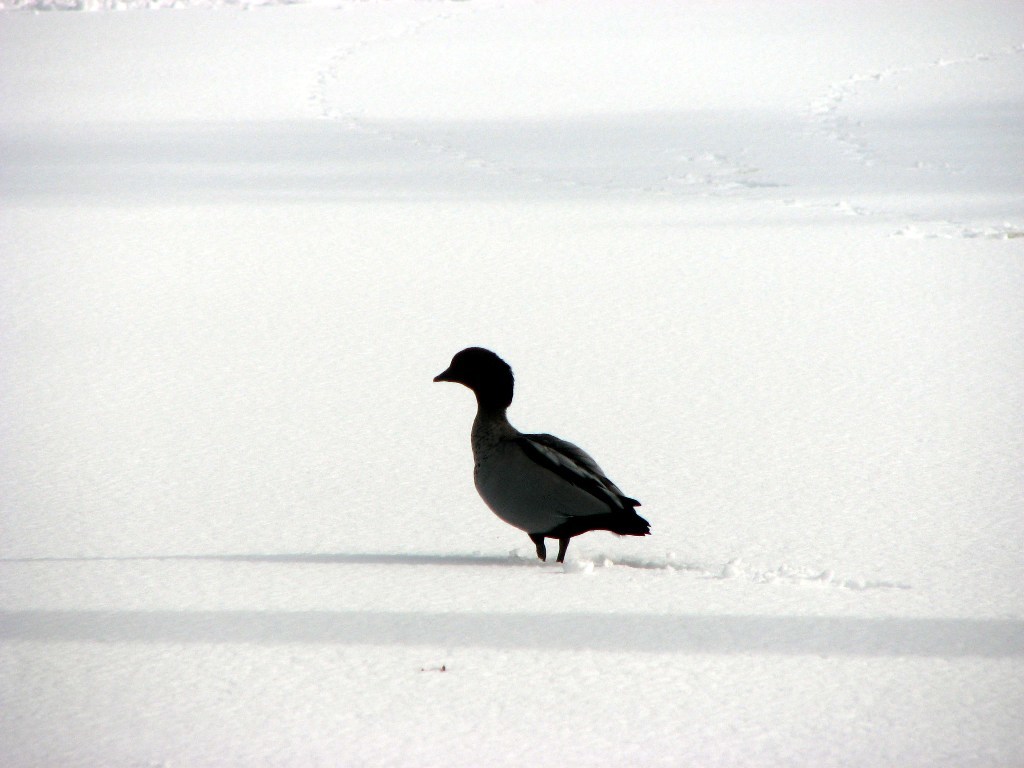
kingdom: Animalia
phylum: Chordata
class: Aves
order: Anseriformes
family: Anatidae
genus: Chenonetta
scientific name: Chenonetta jubata
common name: Maned duck
